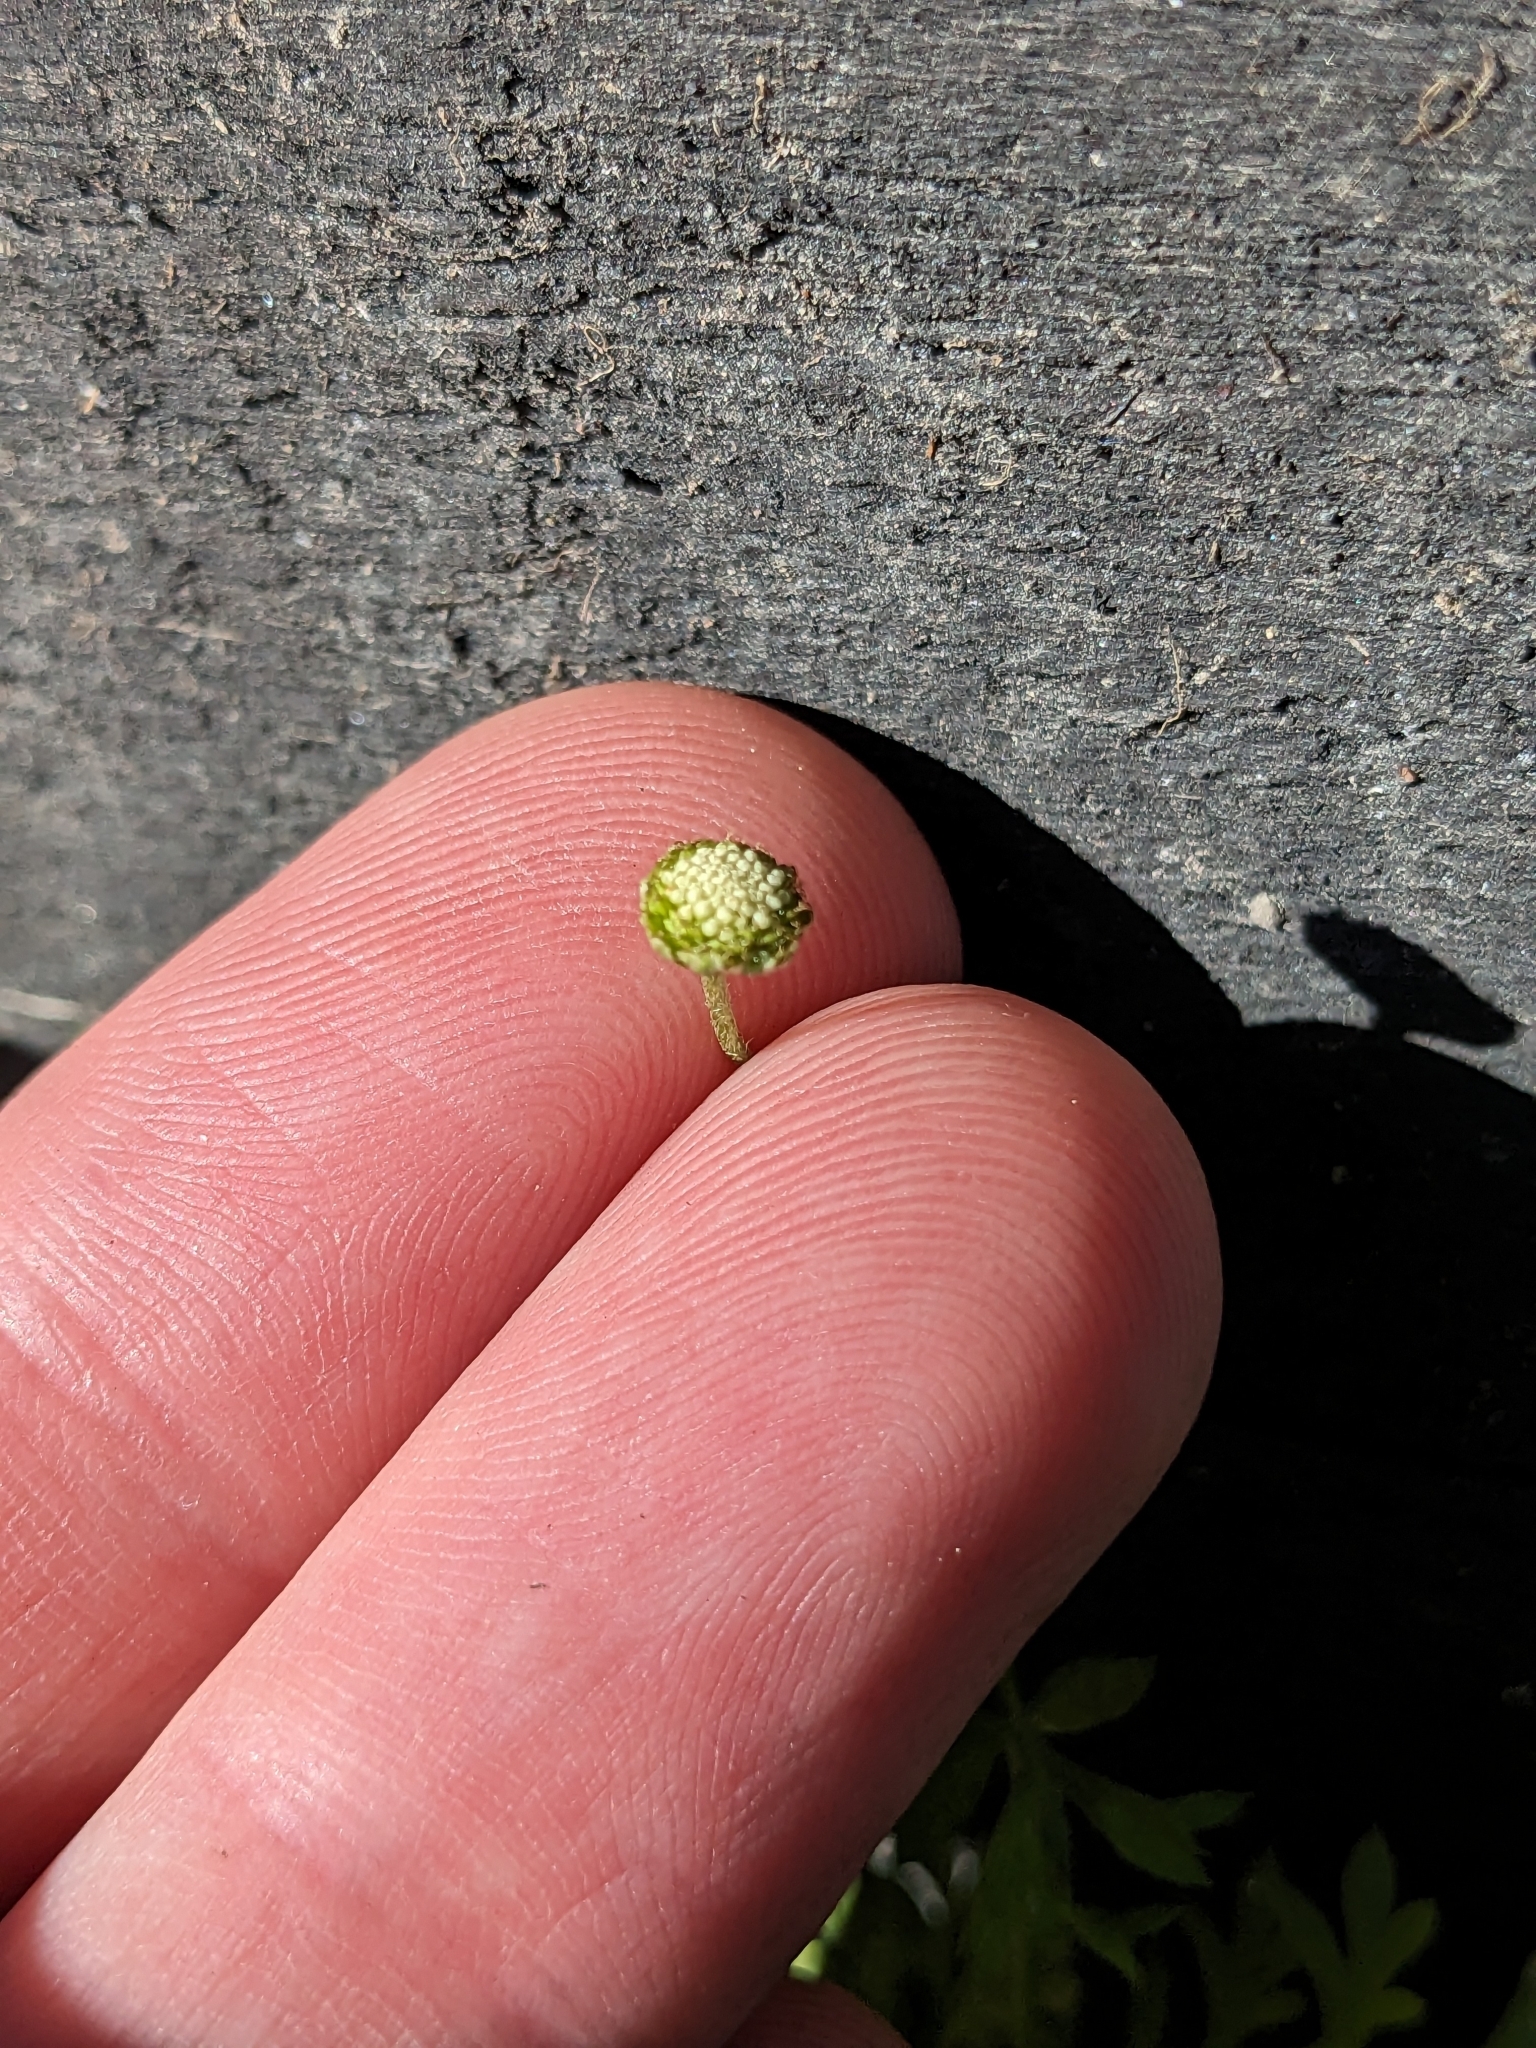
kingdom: Plantae
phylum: Tracheophyta
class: Magnoliopsida
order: Asterales
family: Asteraceae
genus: Cotula
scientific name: Cotula australis
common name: Australian waterbuttons
